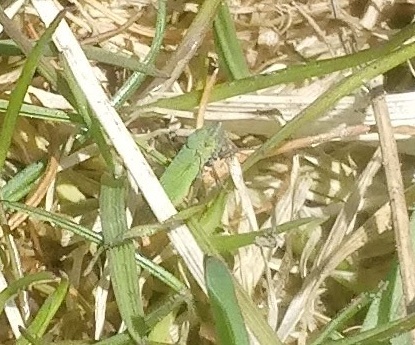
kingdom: Animalia
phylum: Arthropoda
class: Insecta
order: Hemiptera
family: Cicadellidae
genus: Helochara
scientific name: Helochara communis
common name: Bog leafhopper
